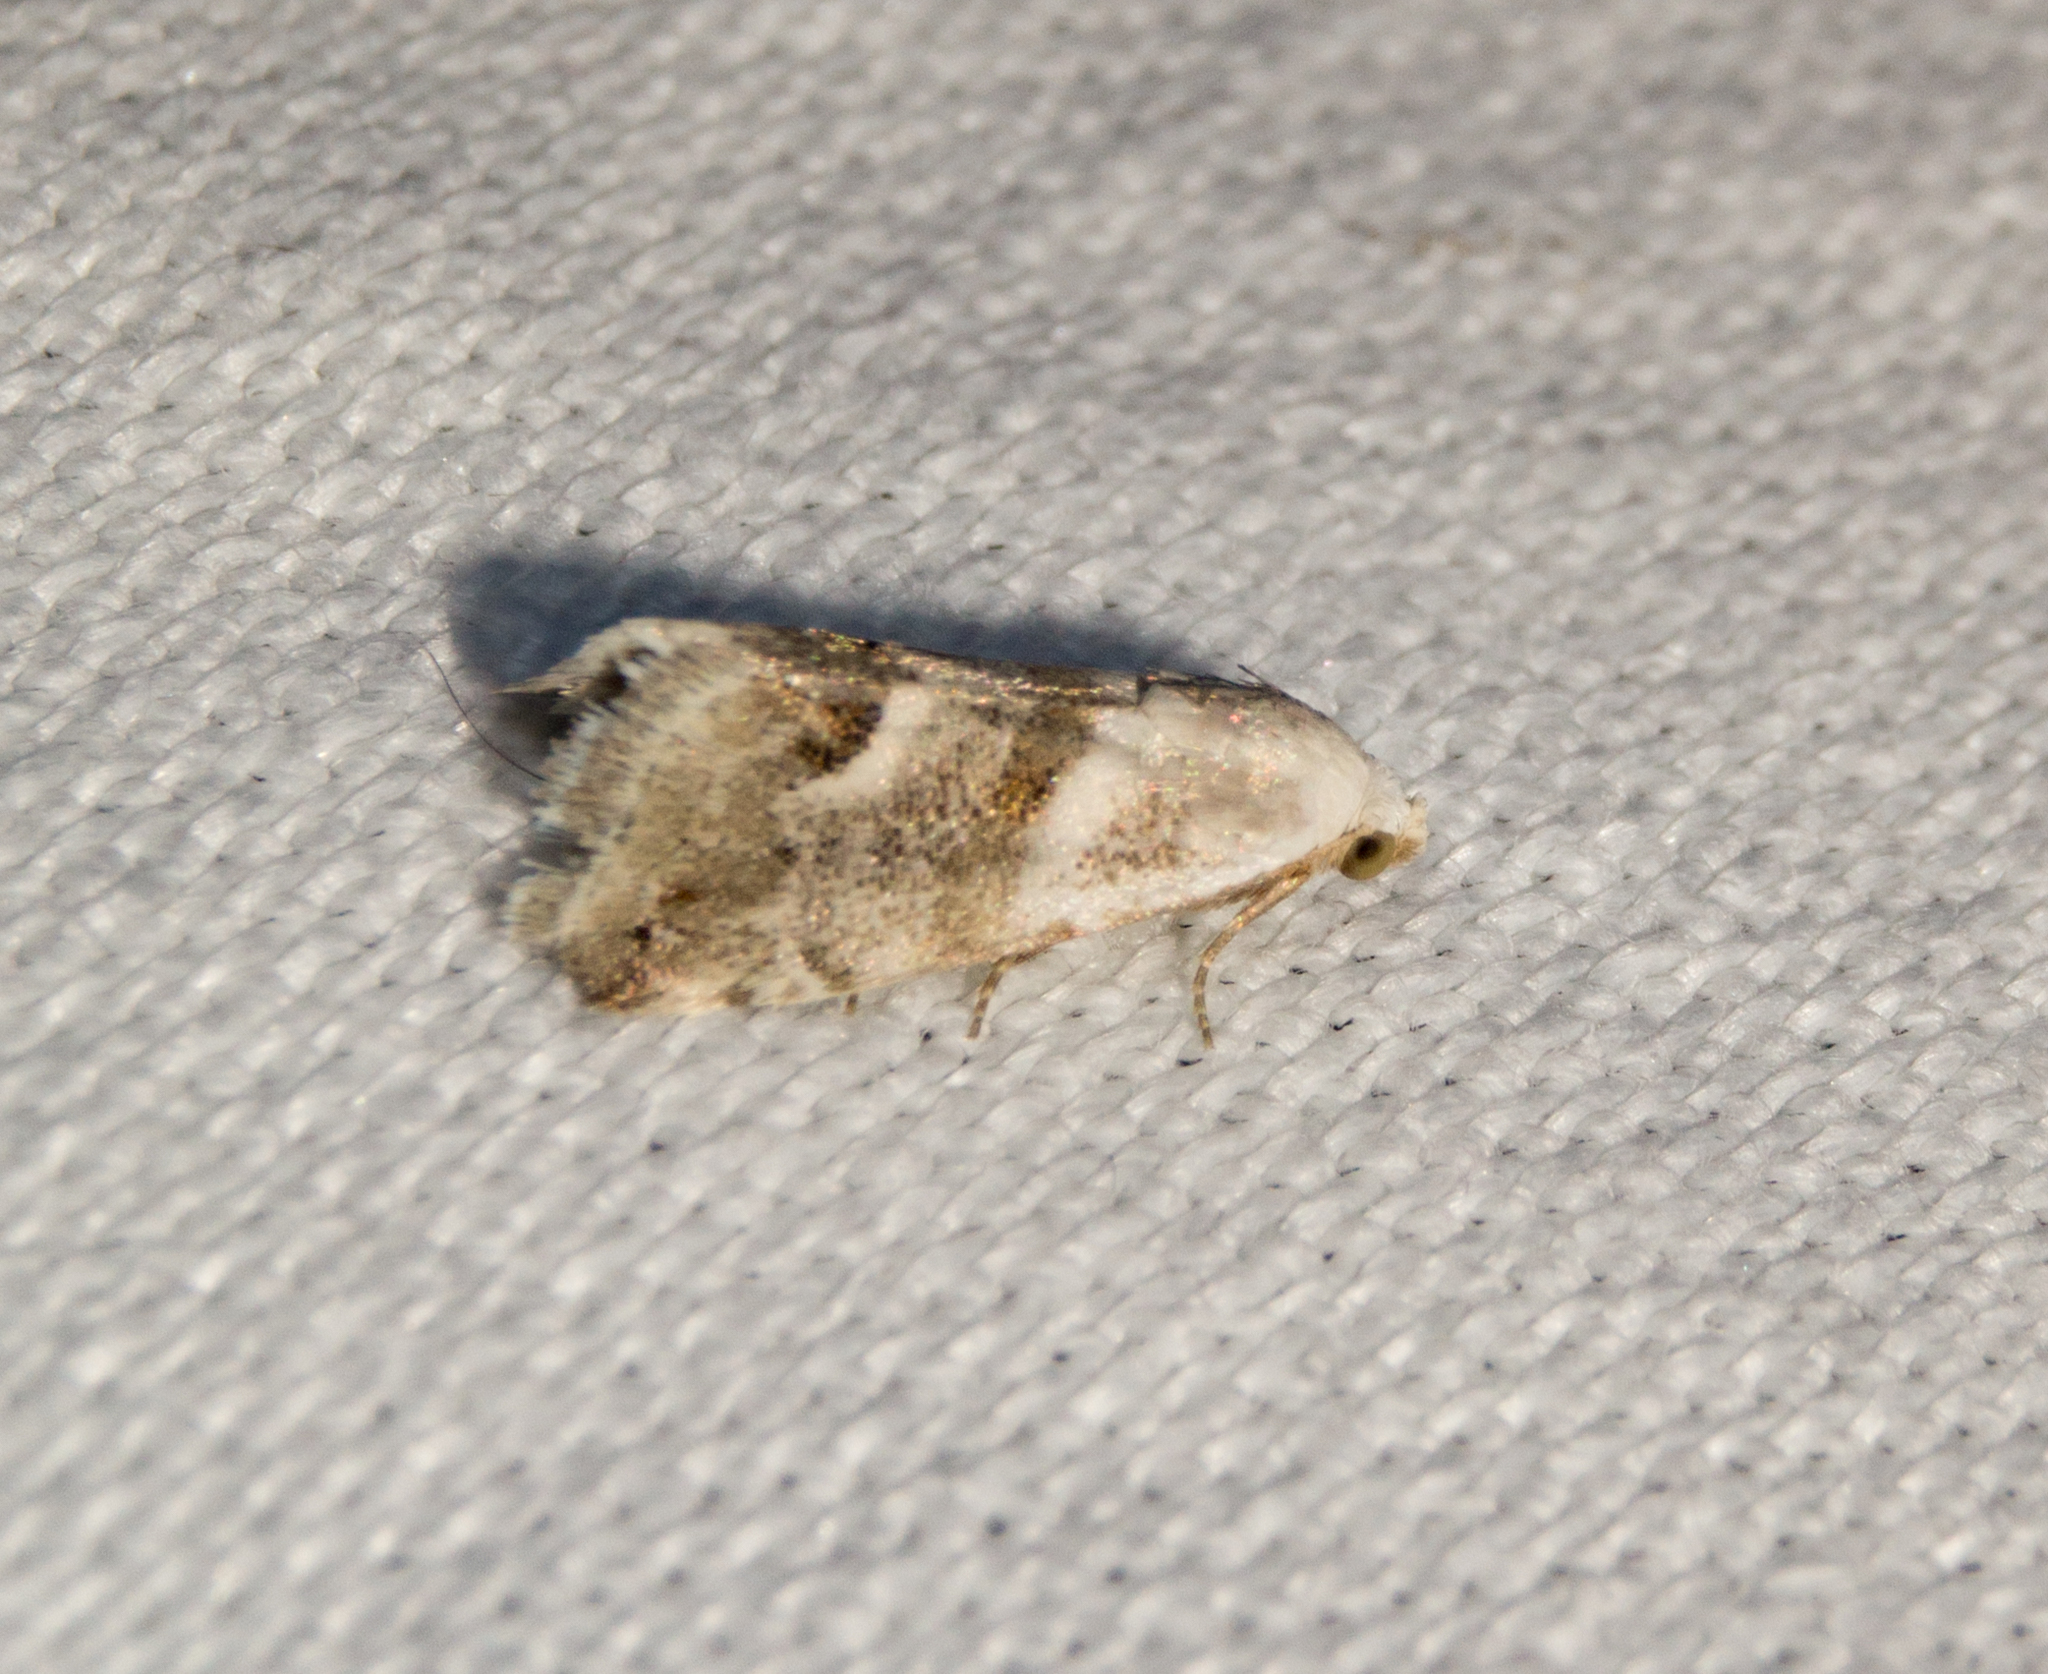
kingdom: Animalia
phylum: Arthropoda
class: Insecta
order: Lepidoptera
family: Noctuidae
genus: Eublemma
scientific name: Eublemma minutata
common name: Scarce marbled
